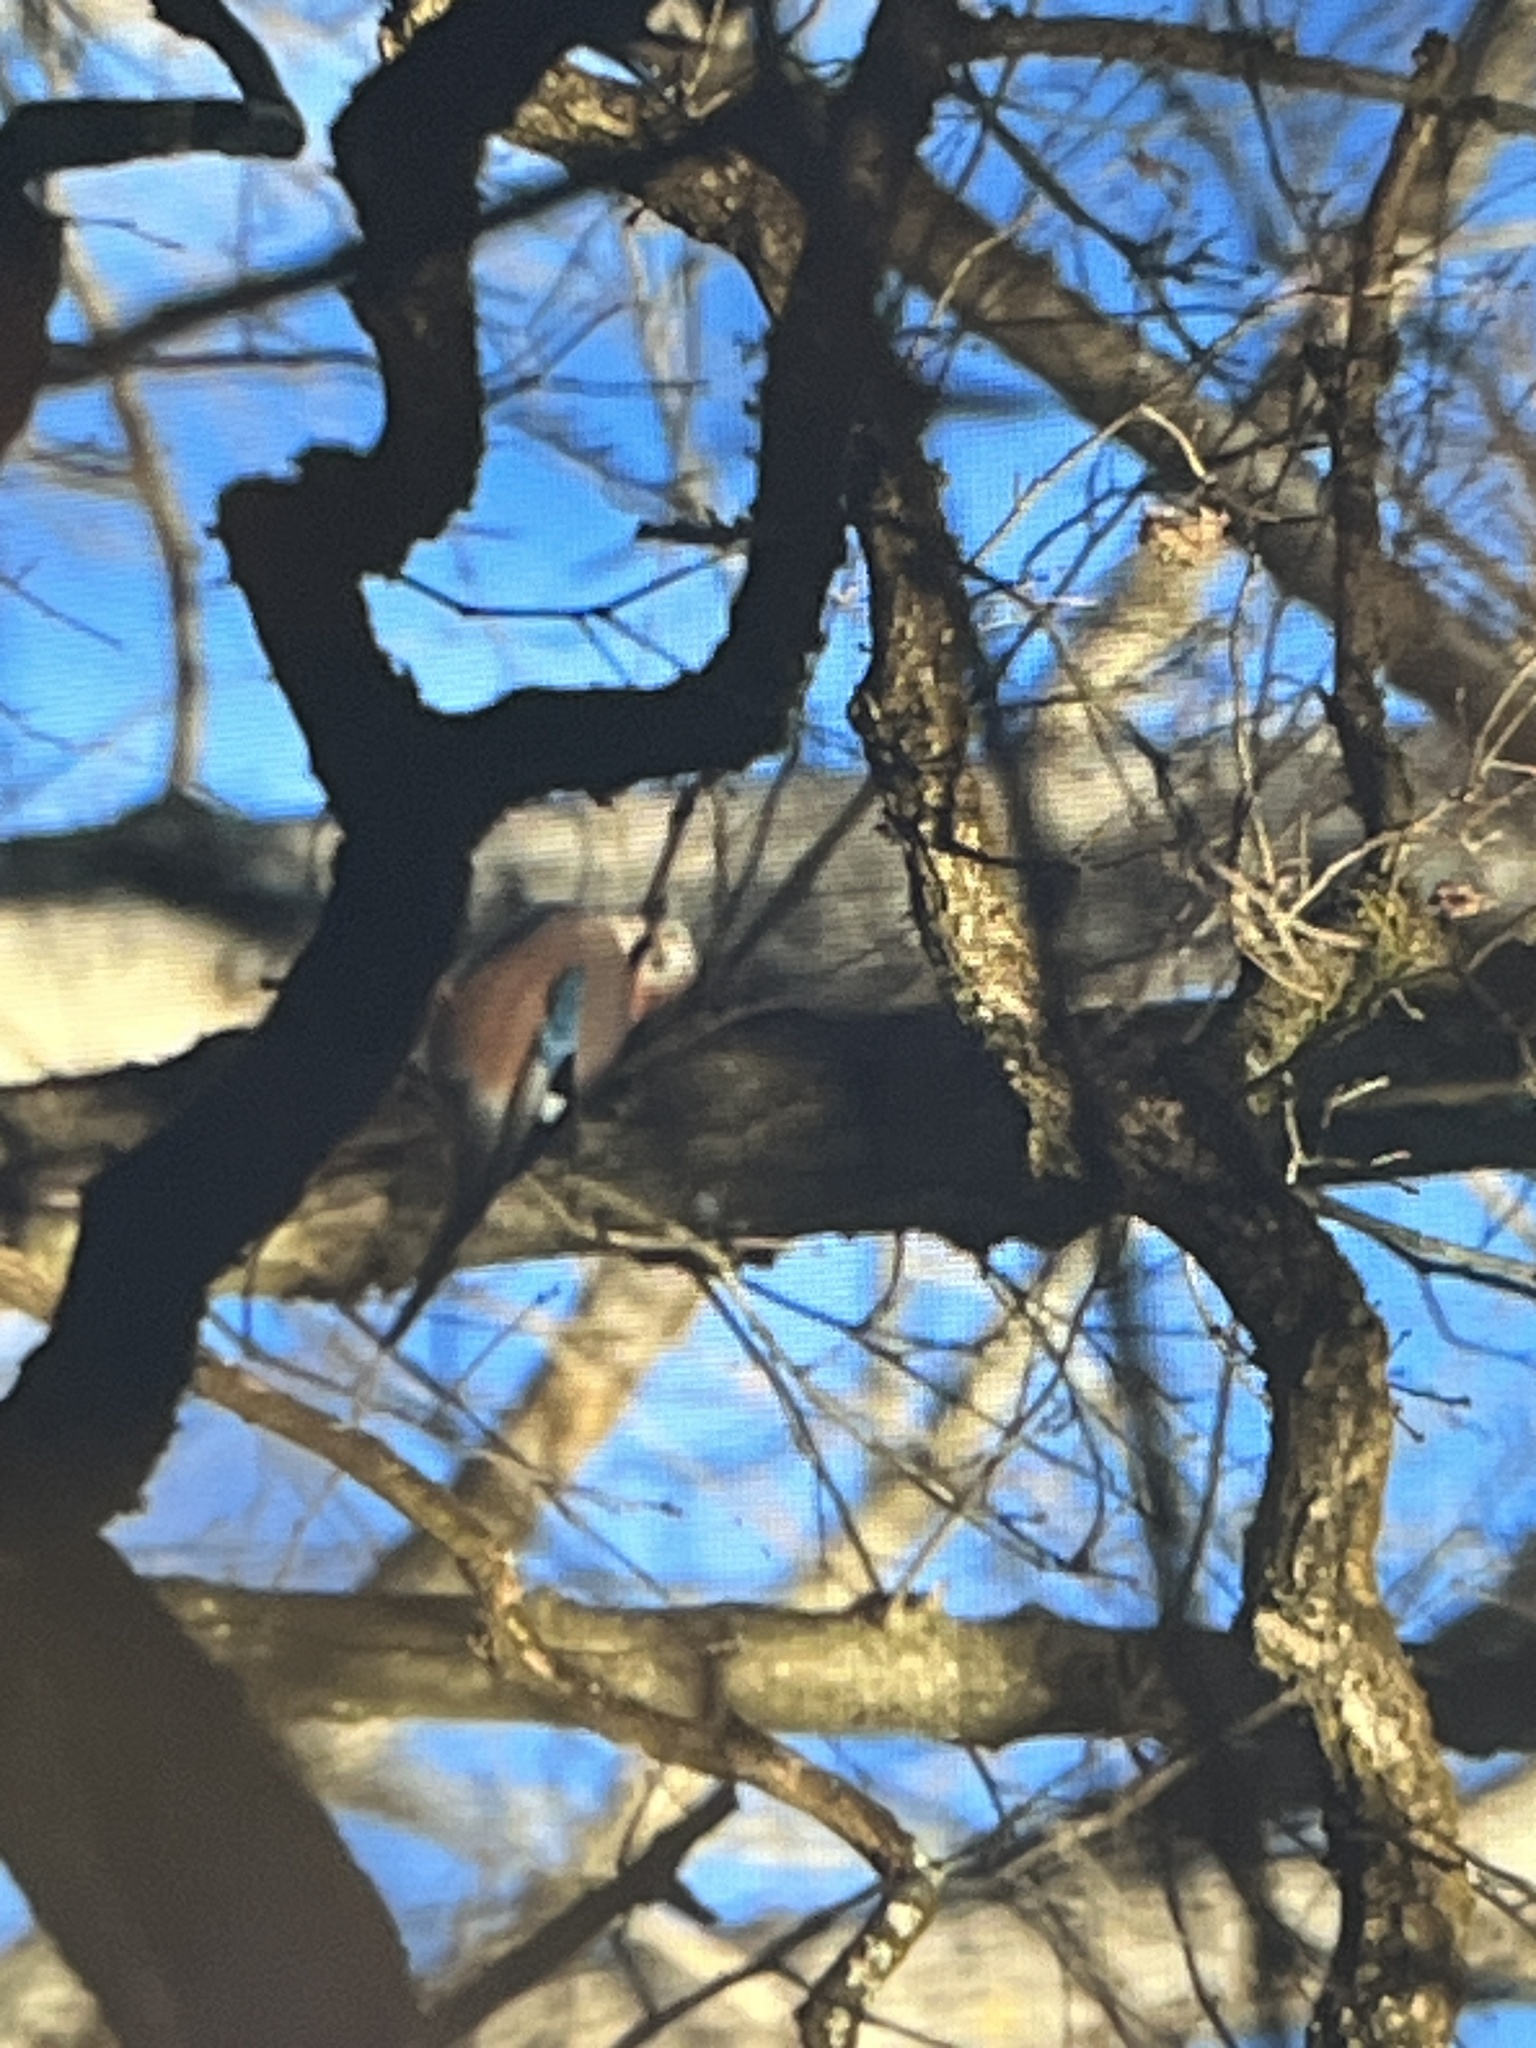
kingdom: Animalia
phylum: Chordata
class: Aves
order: Passeriformes
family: Corvidae
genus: Garrulus
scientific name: Garrulus glandarius
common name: Eurasian jay
